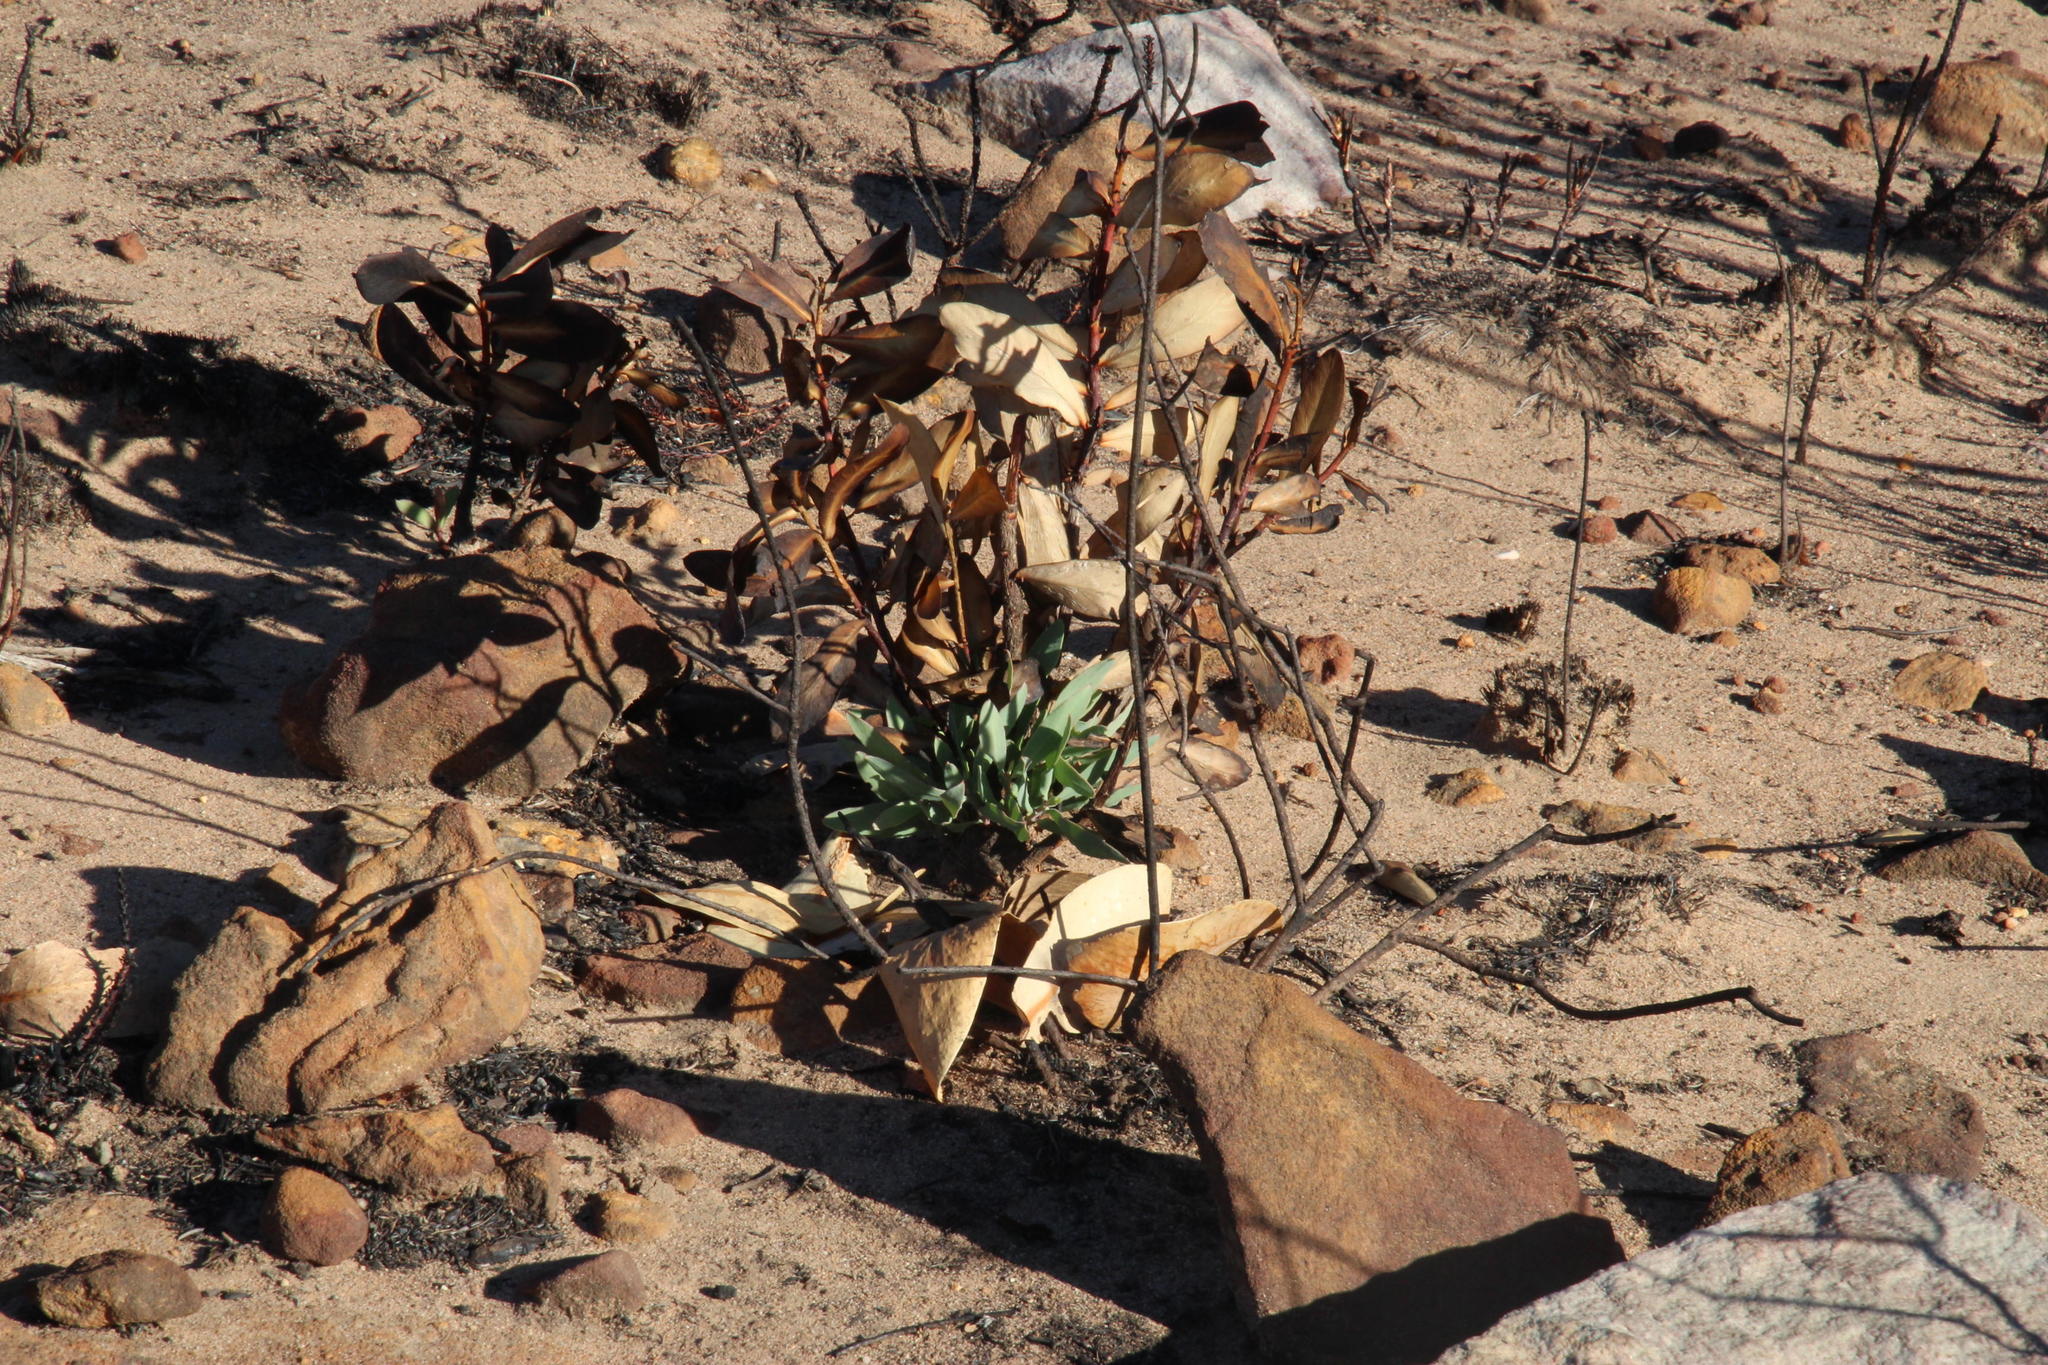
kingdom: Plantae
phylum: Tracheophyta
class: Magnoliopsida
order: Proteales
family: Proteaceae
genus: Protea
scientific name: Protea nitida
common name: Tree protea
